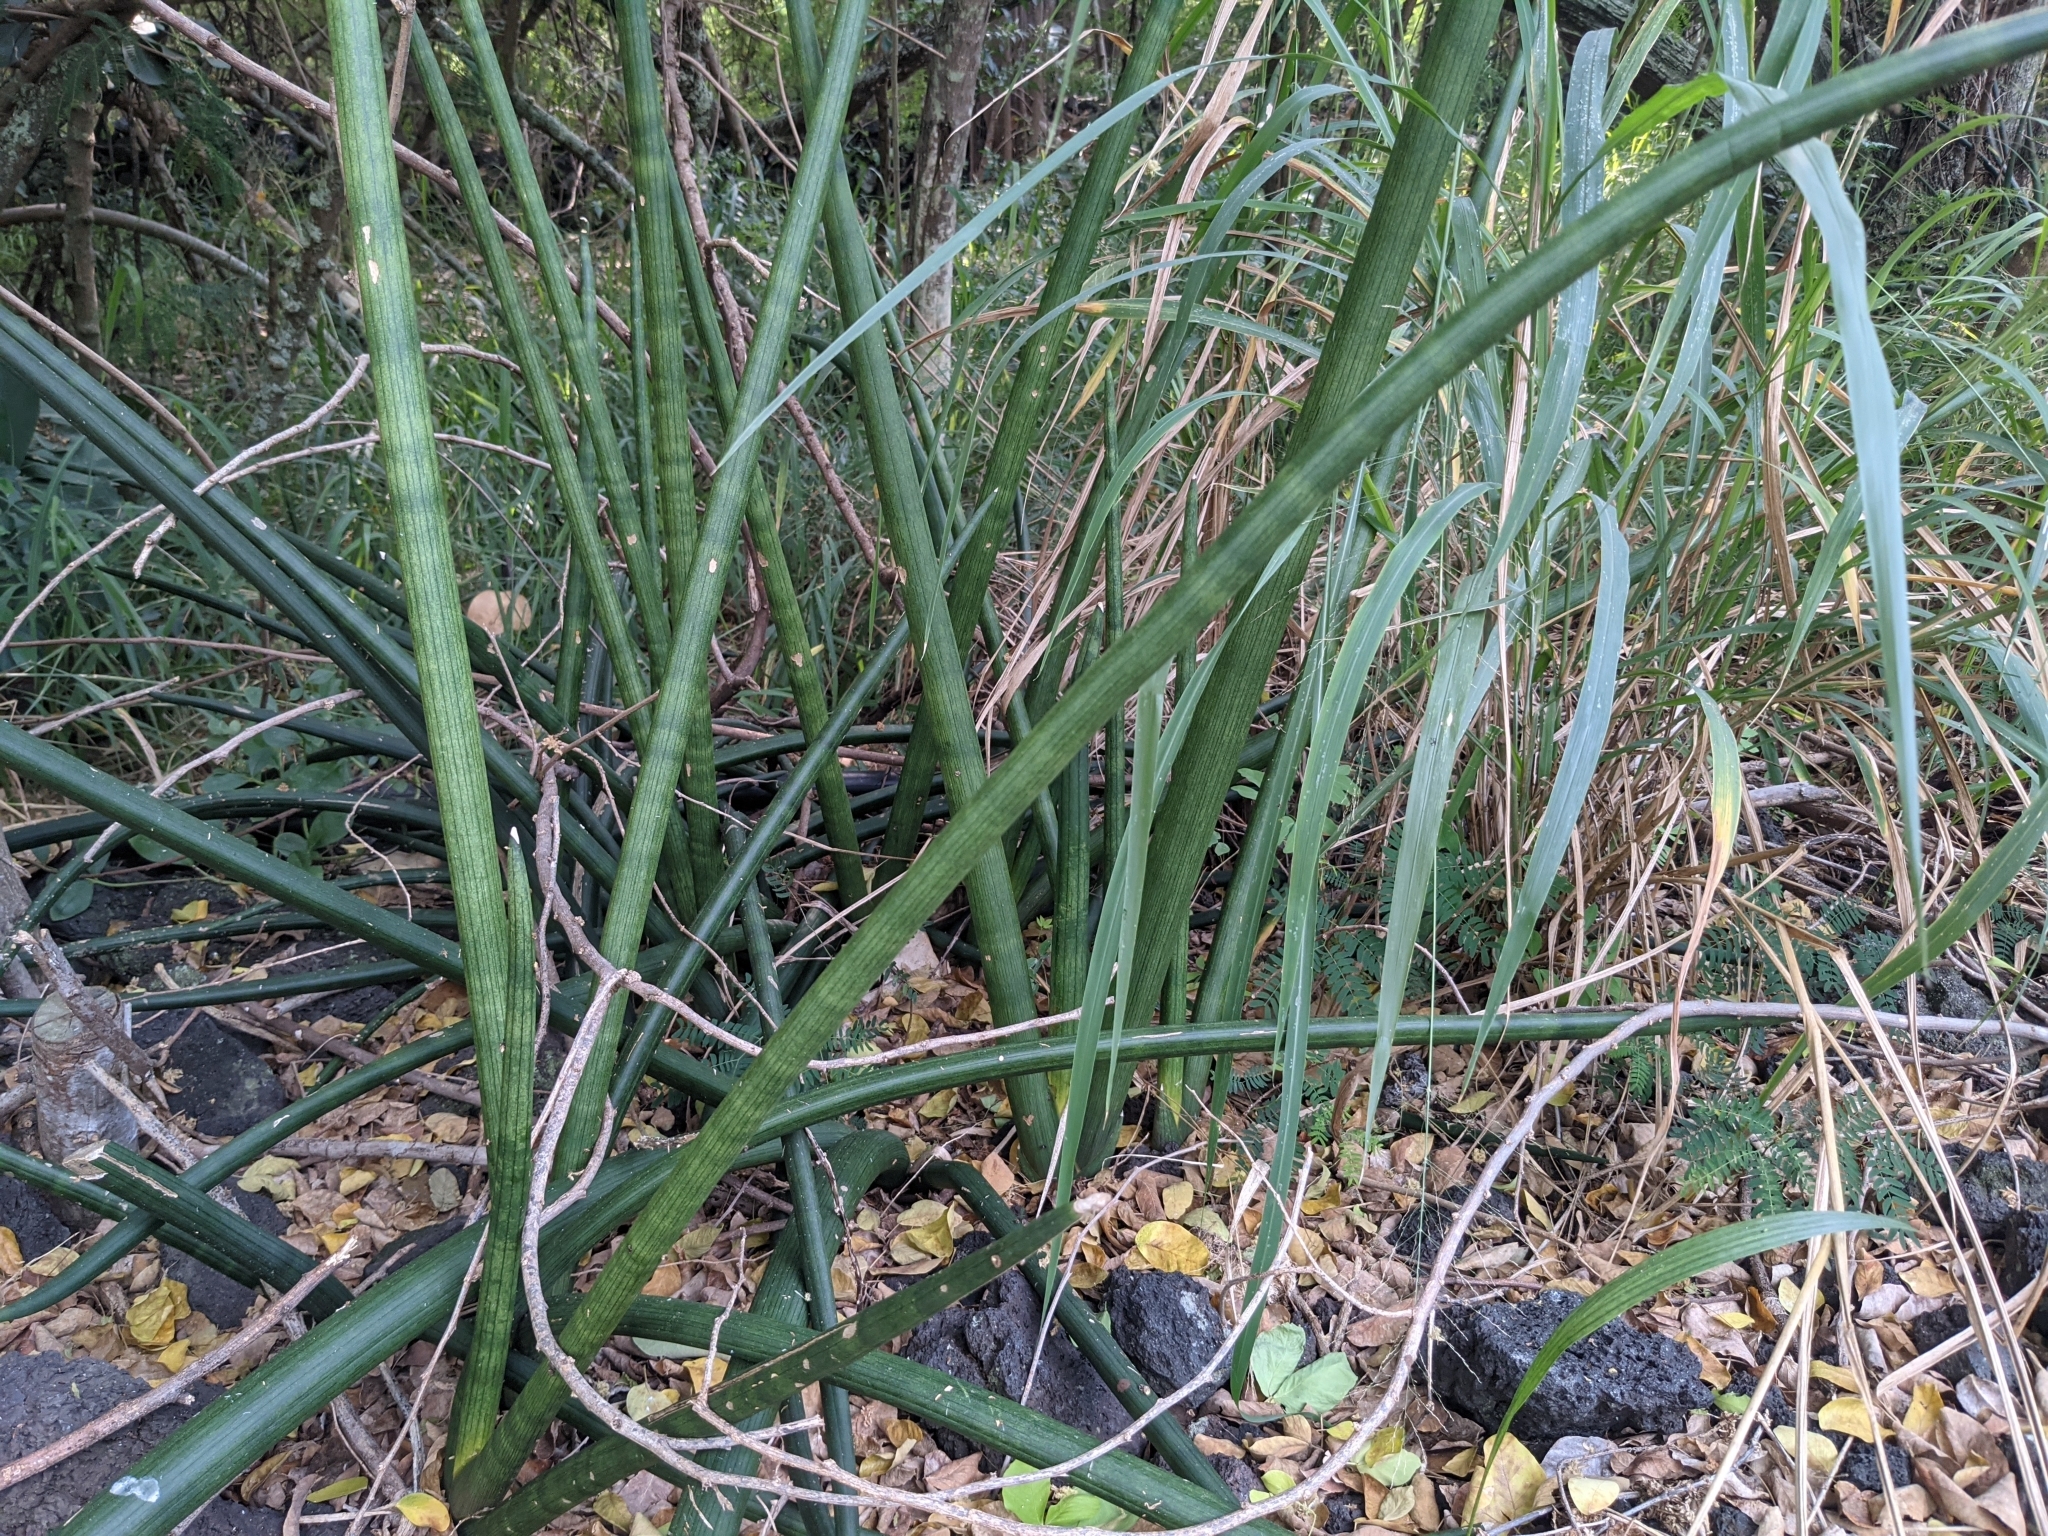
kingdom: Plantae
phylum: Tracheophyta
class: Liliopsida
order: Asparagales
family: Asparagaceae
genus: Dracaena
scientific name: Dracaena angolensis
